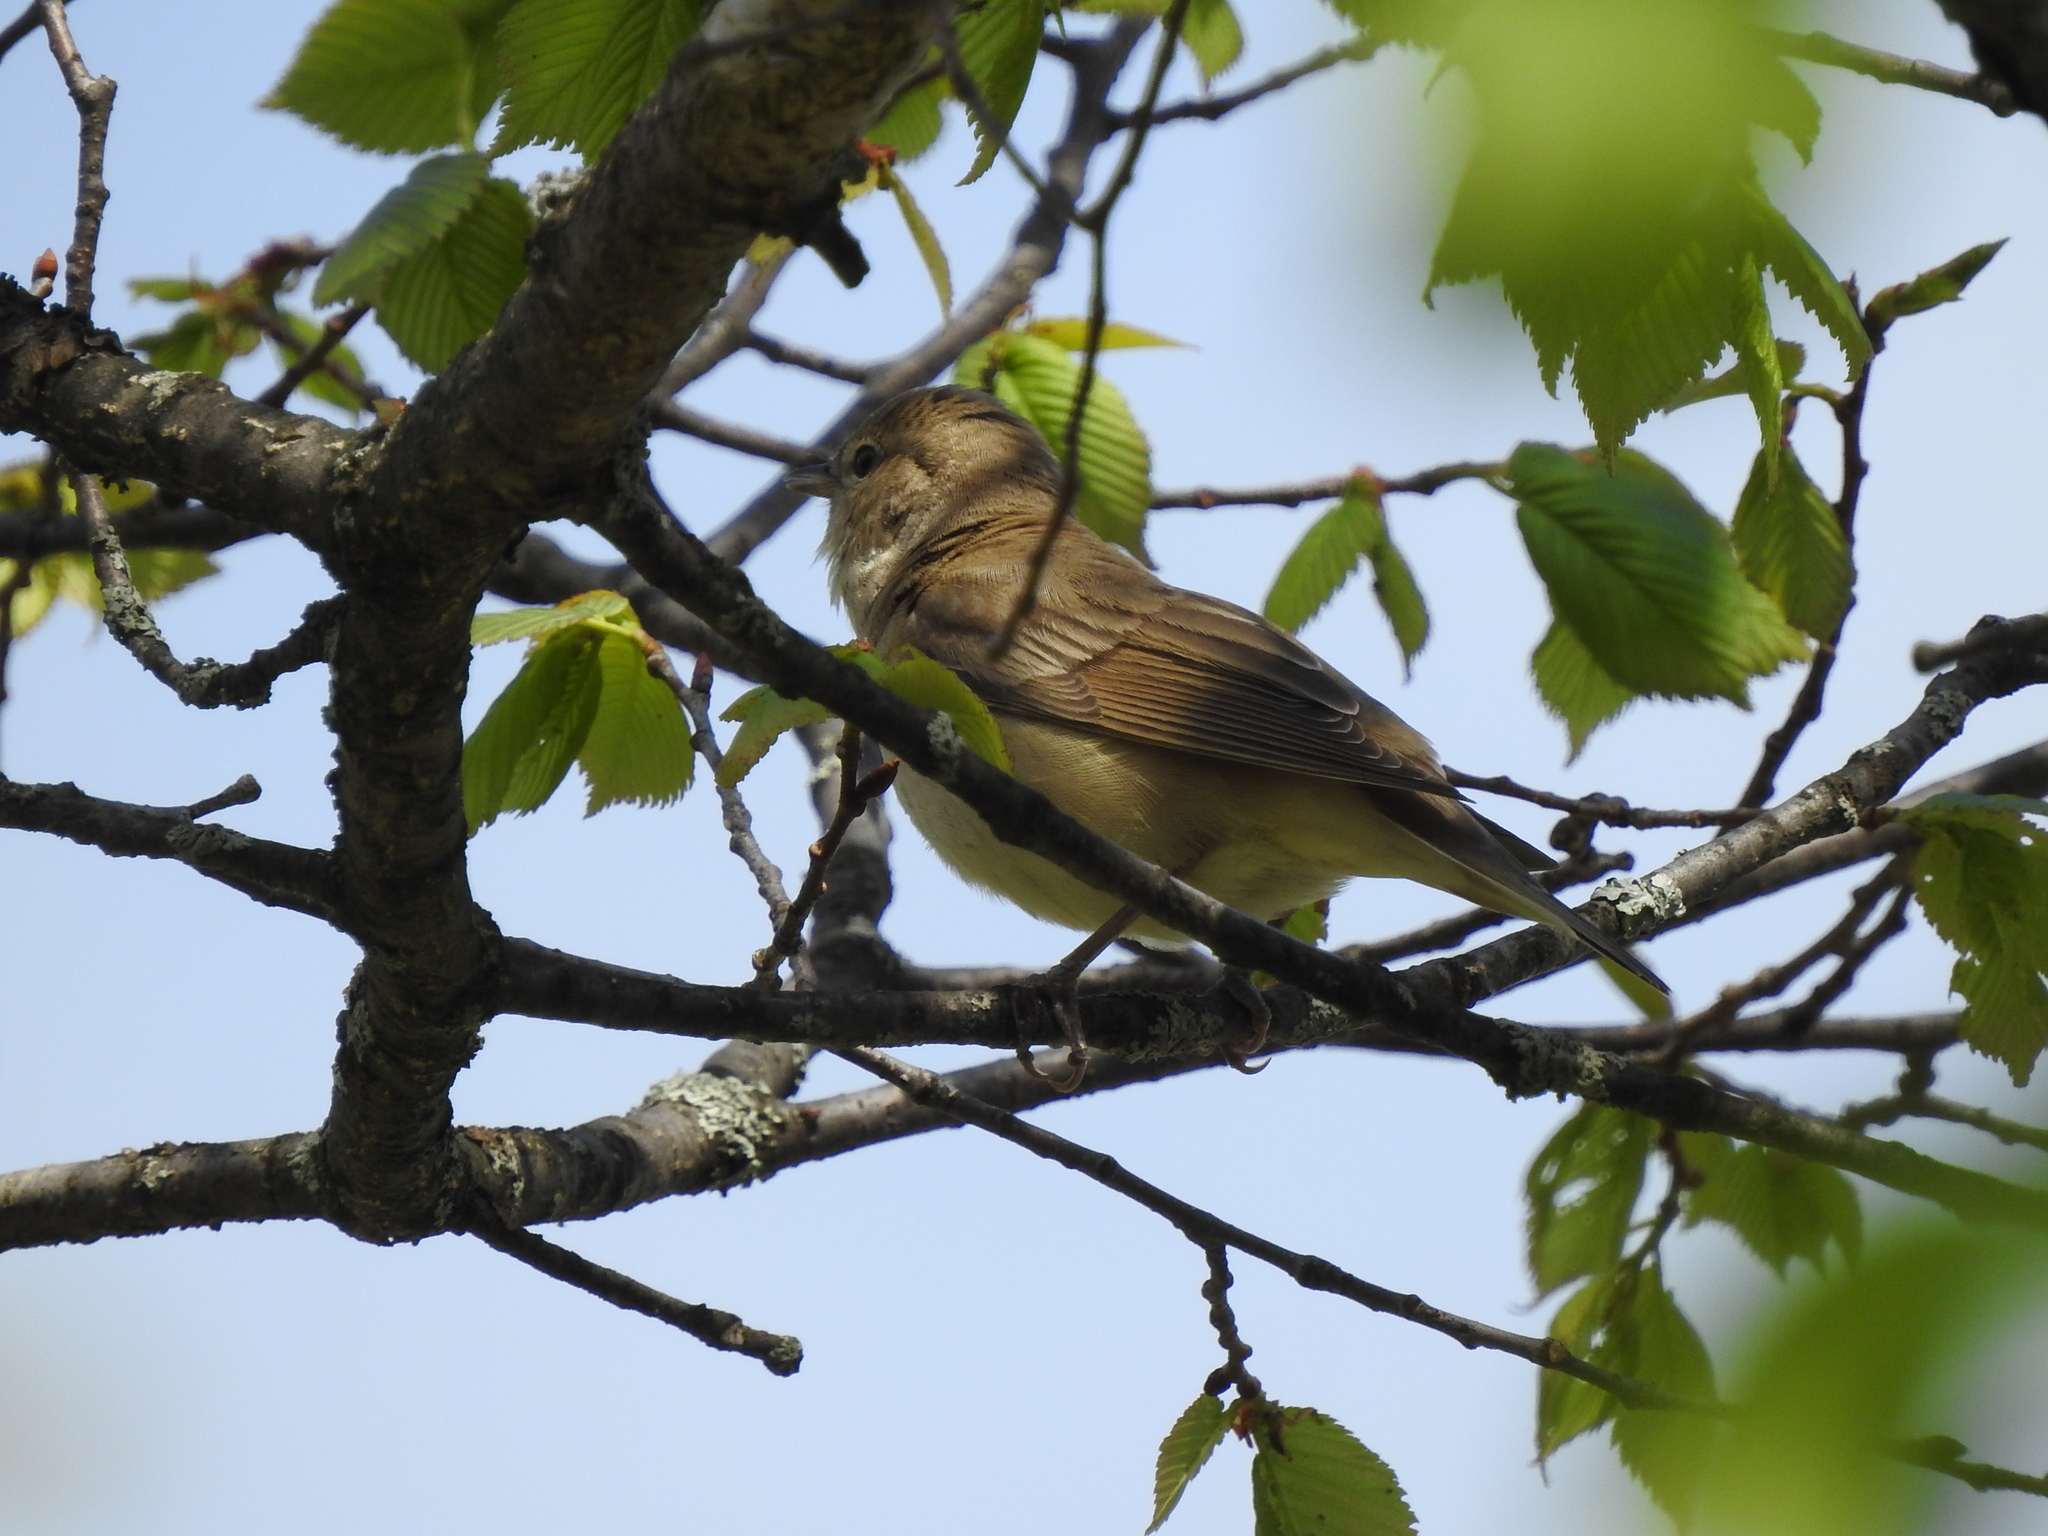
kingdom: Animalia
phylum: Chordata
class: Aves
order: Passeriformes
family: Sylviidae
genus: Sylvia
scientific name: Sylvia borin
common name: Garden warbler
